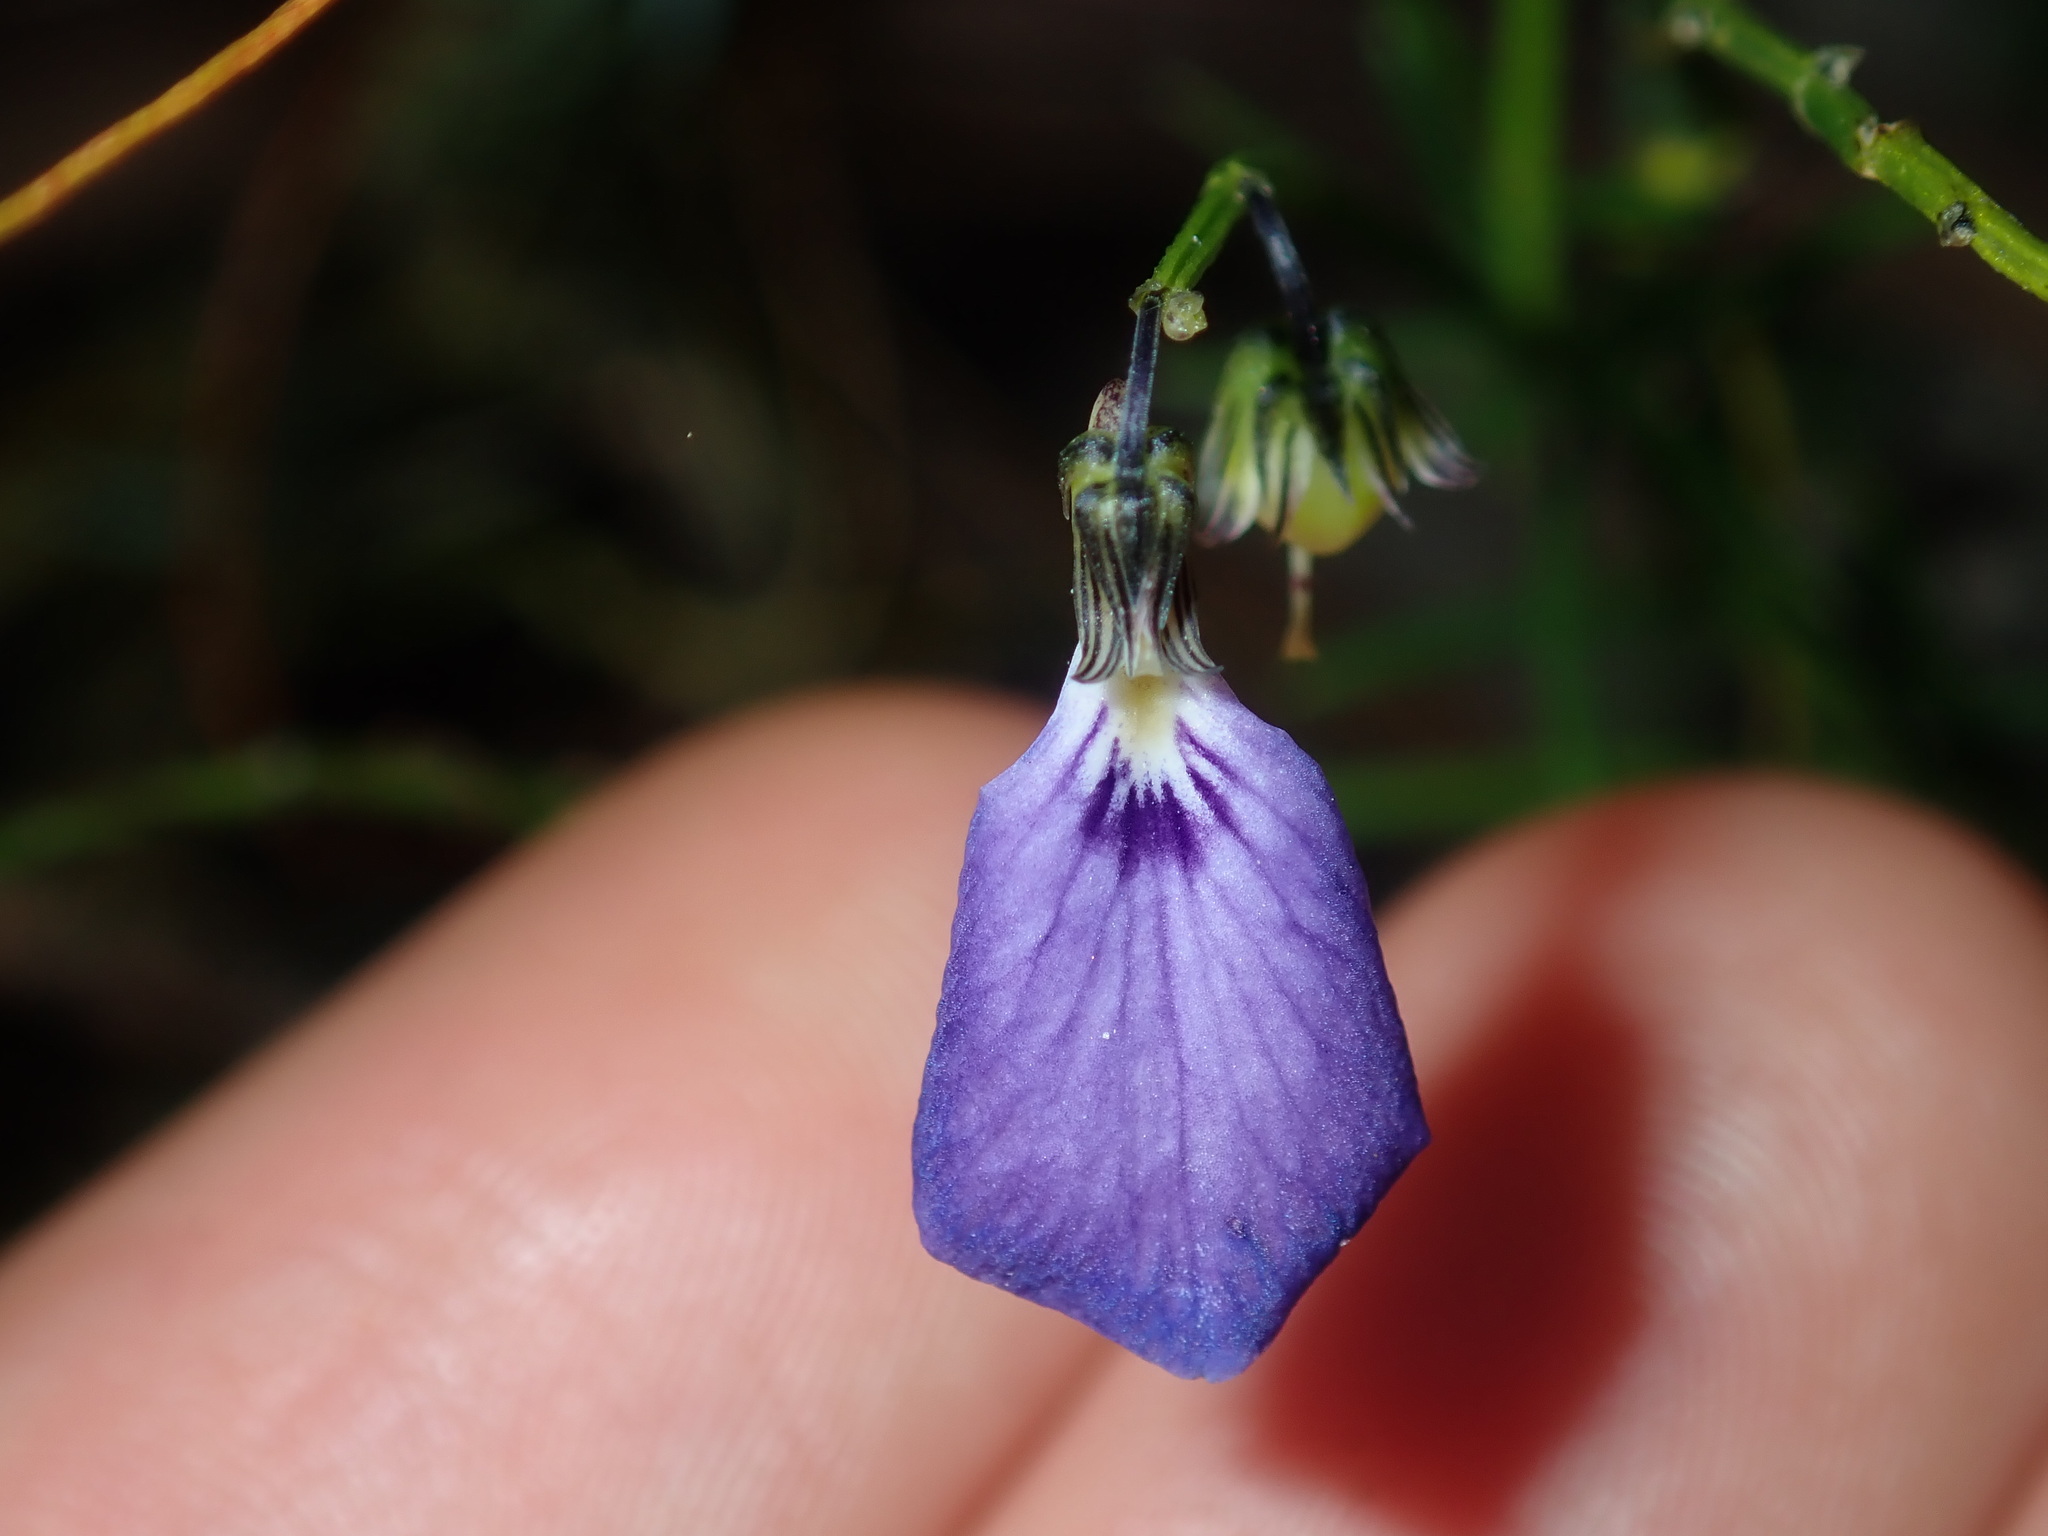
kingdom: Plantae
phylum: Tracheophyta
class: Magnoliopsida
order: Malpighiales
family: Violaceae
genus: Pigea
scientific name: Pigea monopetala
